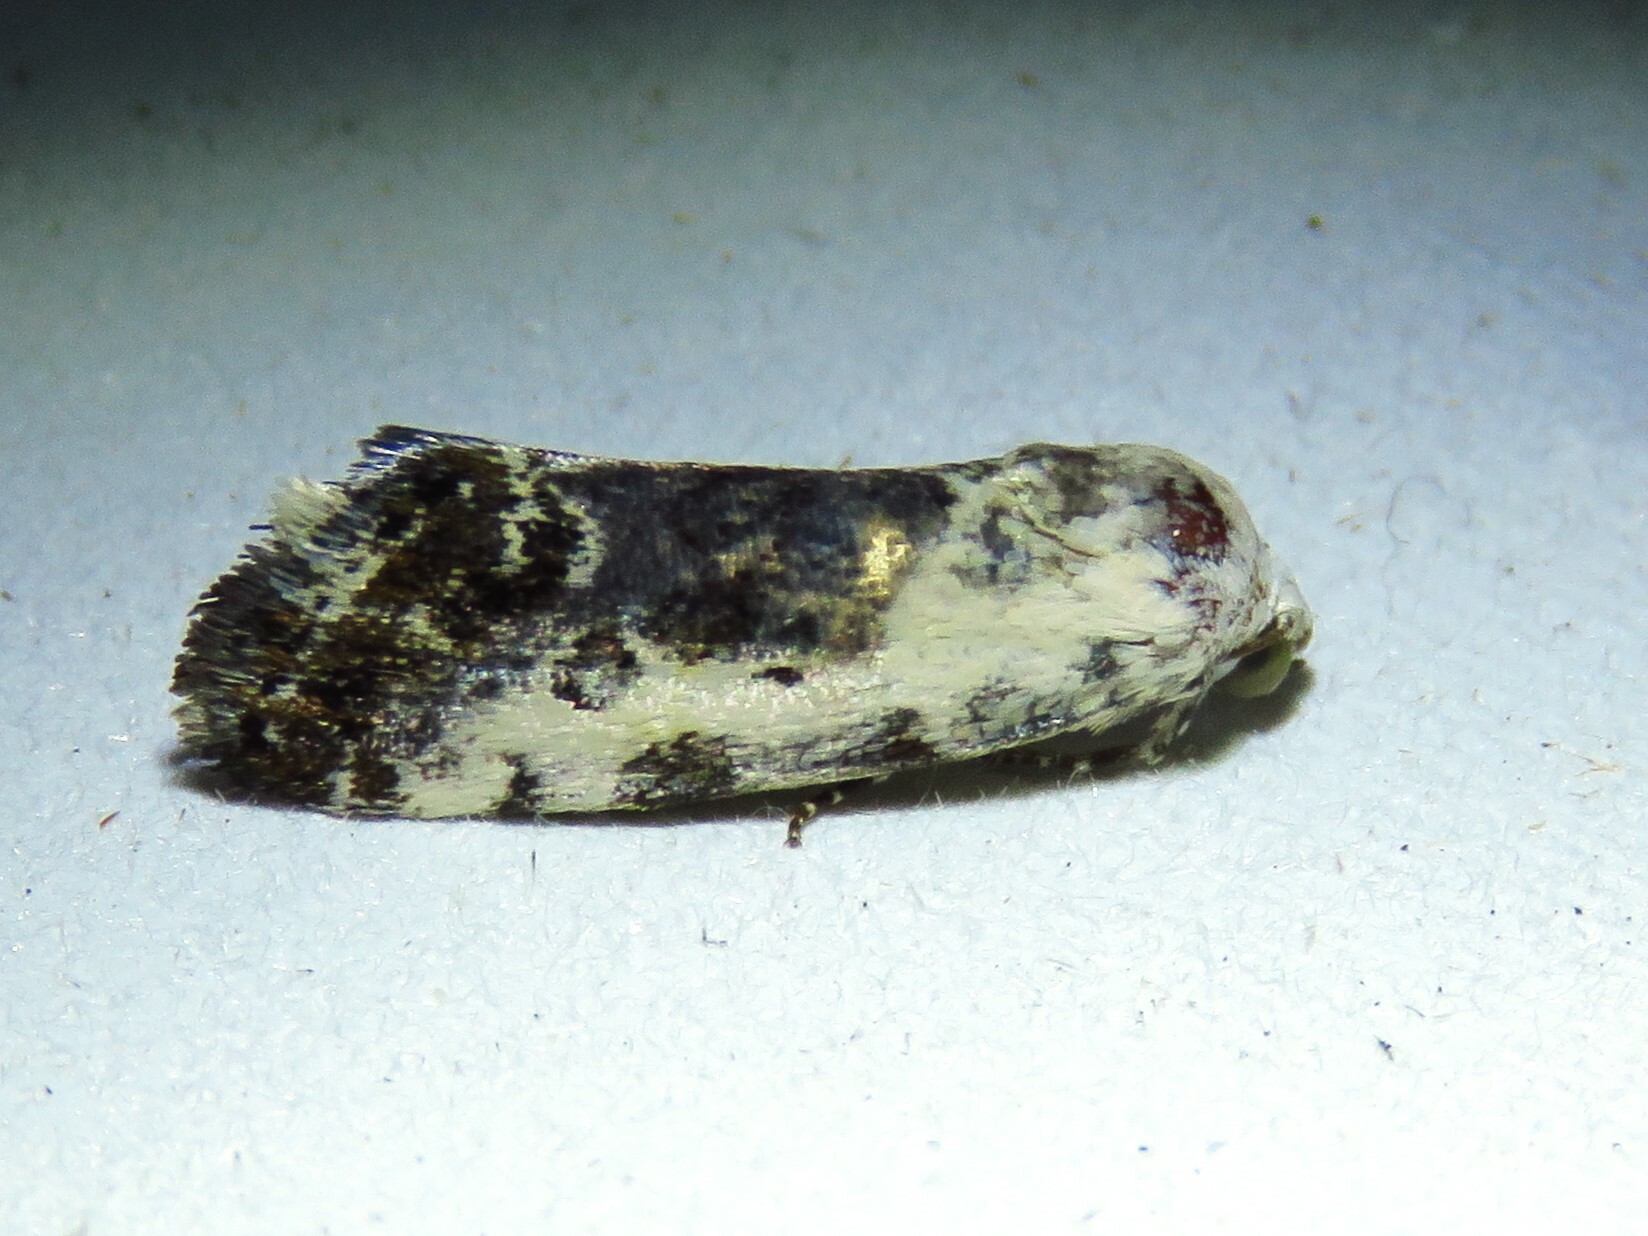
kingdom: Animalia
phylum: Arthropoda
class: Insecta
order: Lepidoptera
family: Noctuidae
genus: Acontia
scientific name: Acontia phecolisca
